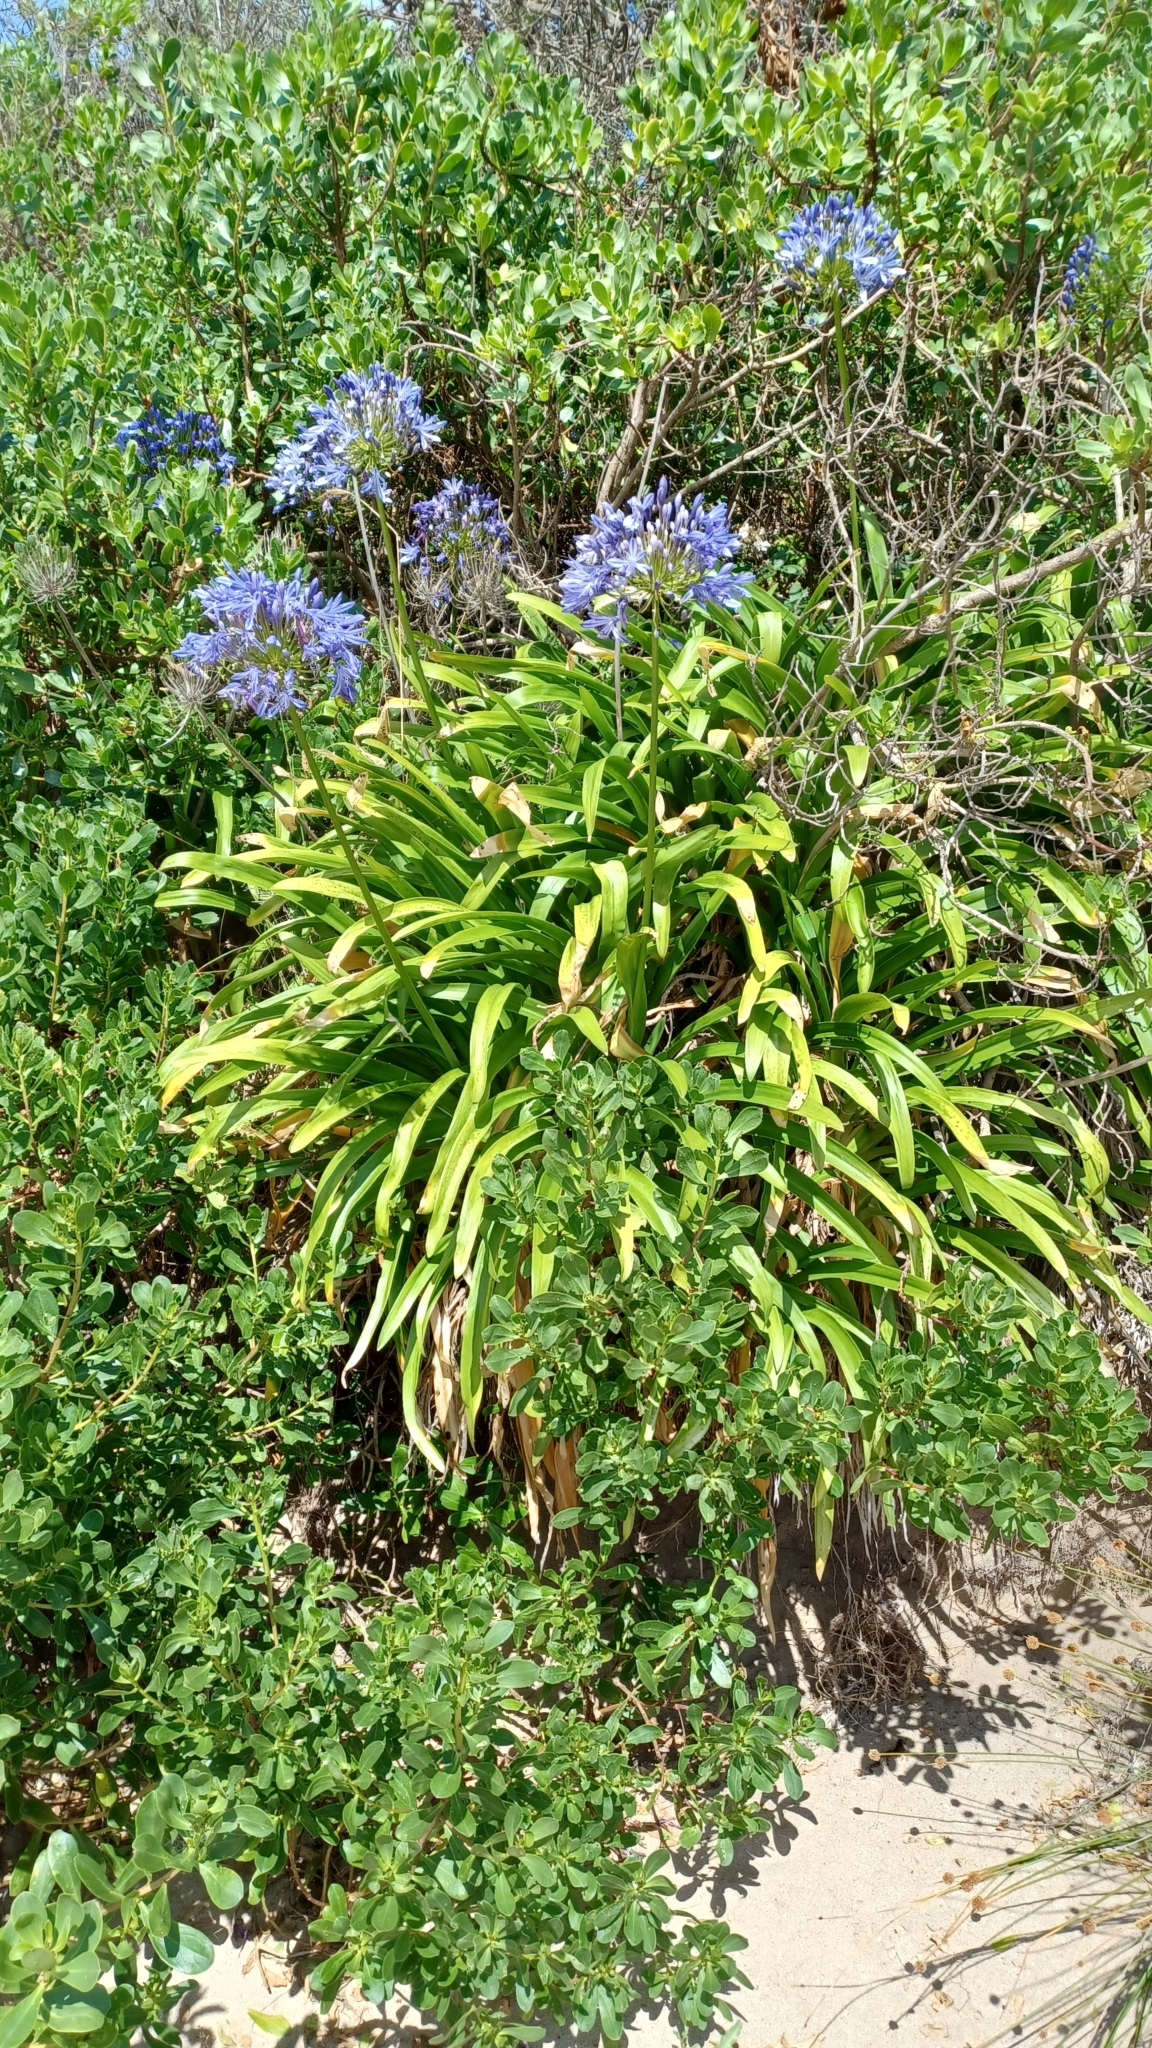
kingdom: Plantae
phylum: Tracheophyta
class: Liliopsida
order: Asparagales
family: Amaryllidaceae
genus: Agapanthus
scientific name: Agapanthus praecox
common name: African-lily
